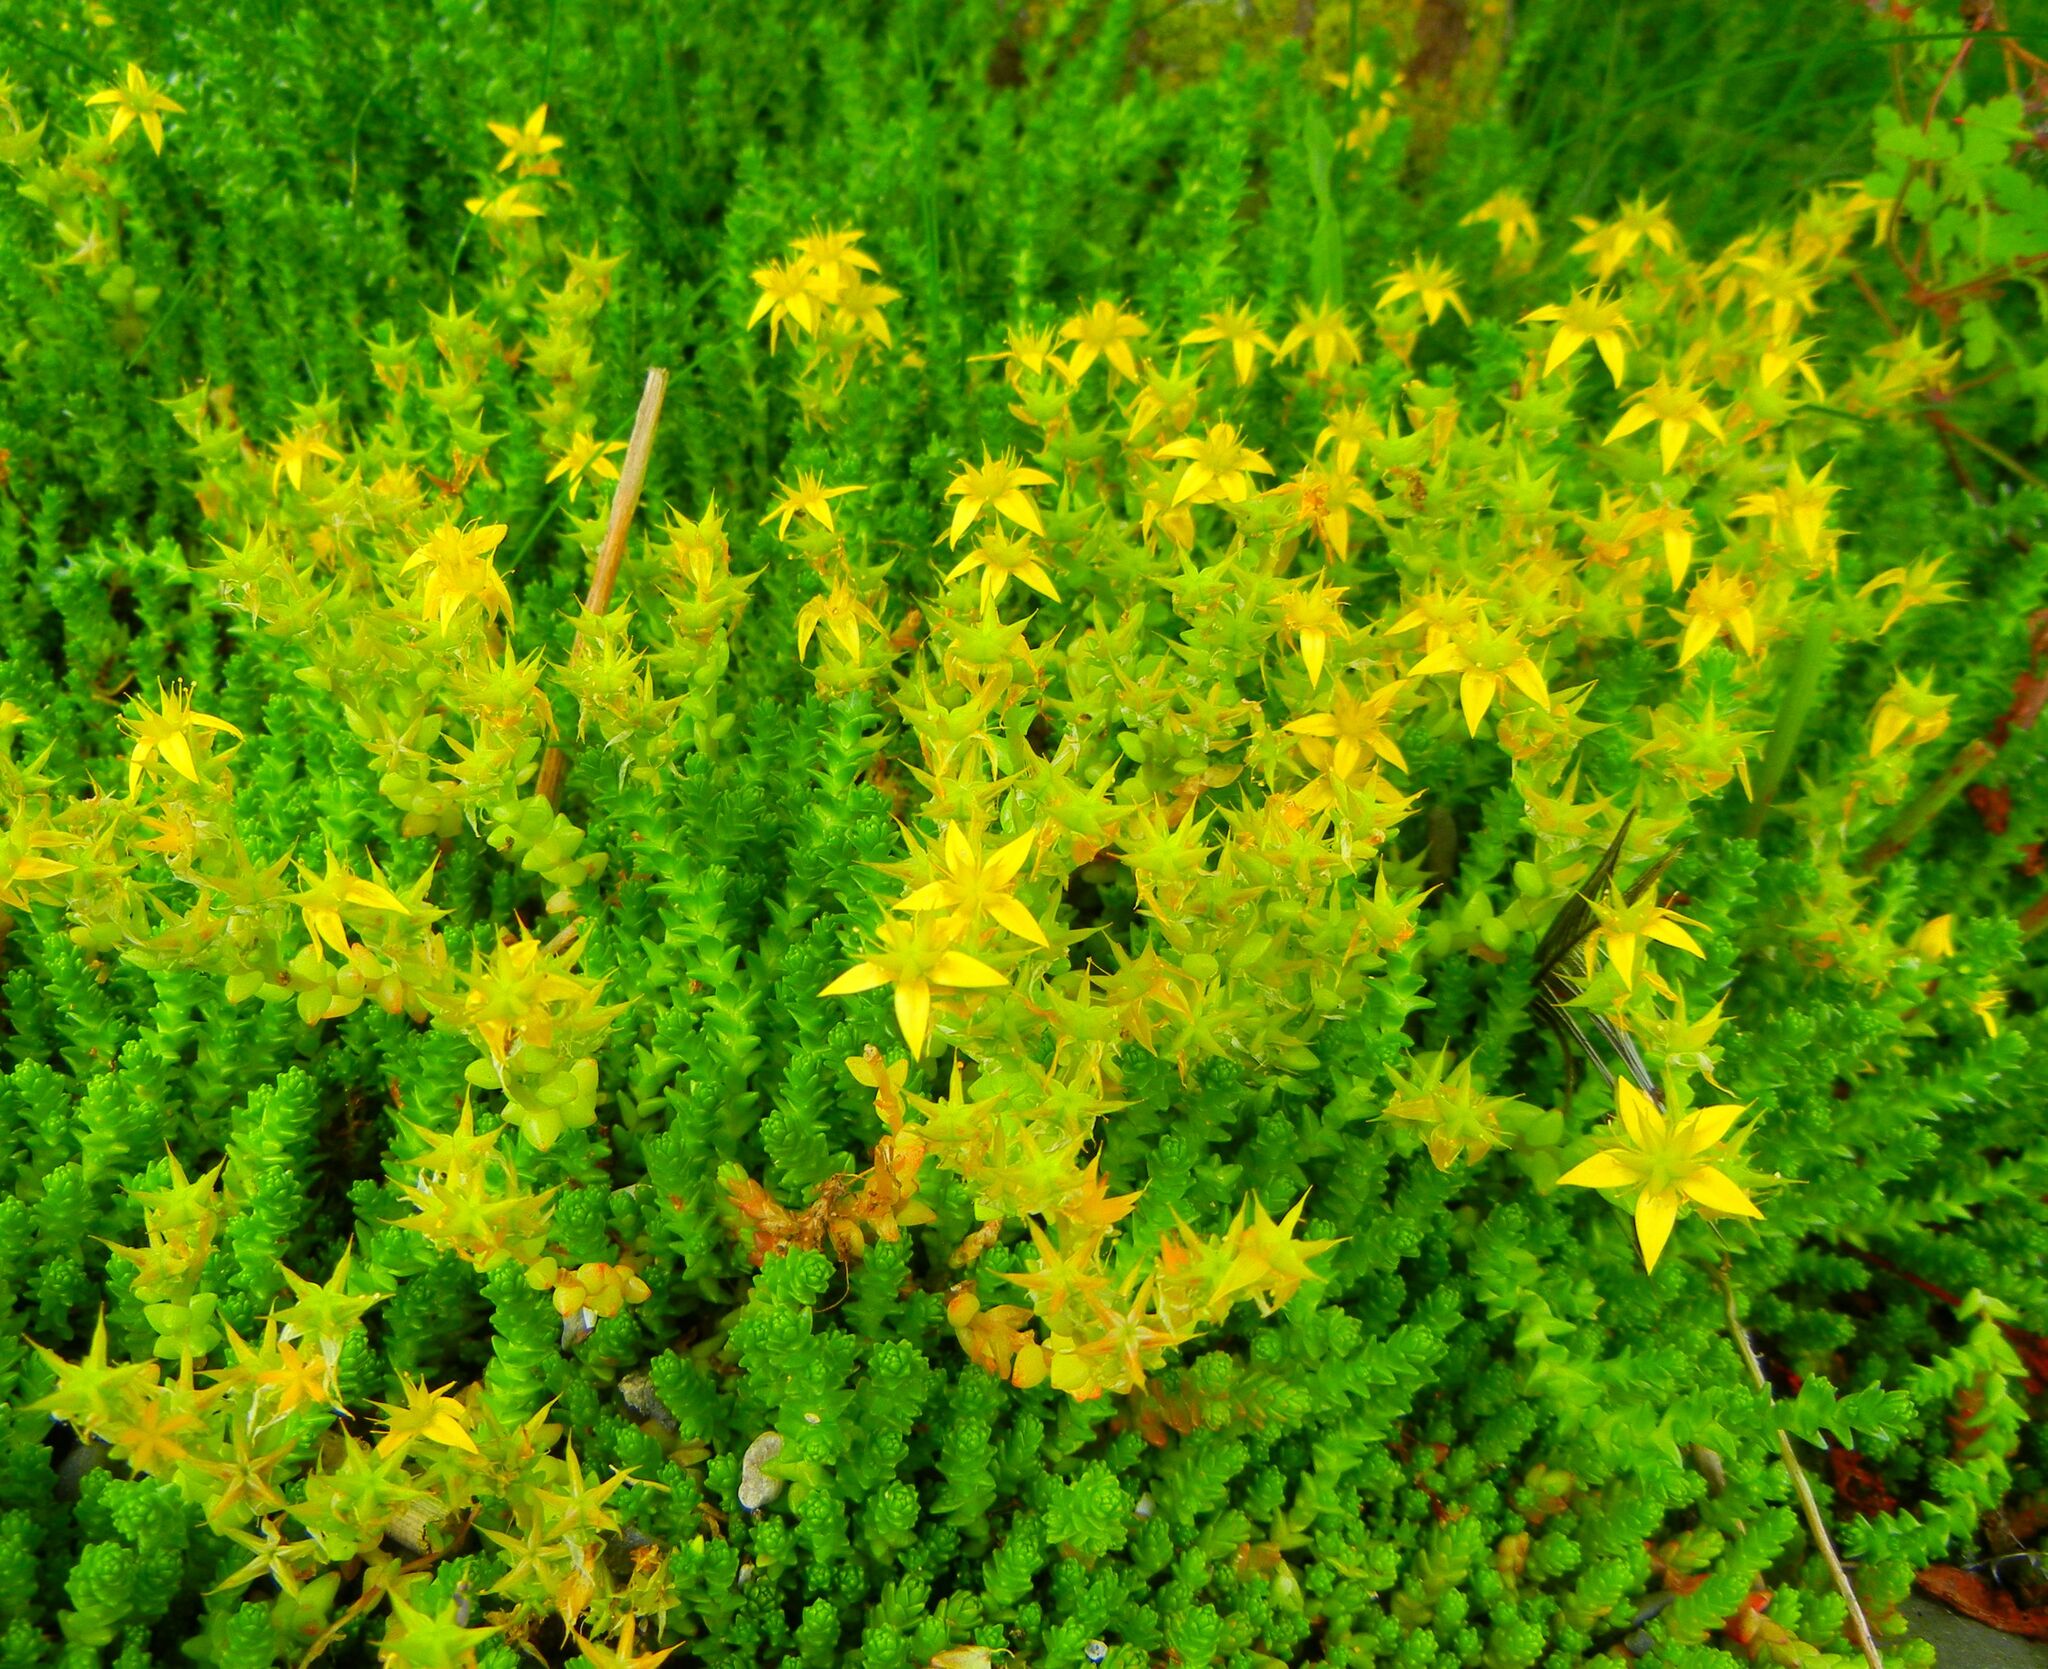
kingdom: Plantae
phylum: Tracheophyta
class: Magnoliopsida
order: Saxifragales
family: Crassulaceae
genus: Sedum
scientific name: Sedum acre
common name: Biting stonecrop
